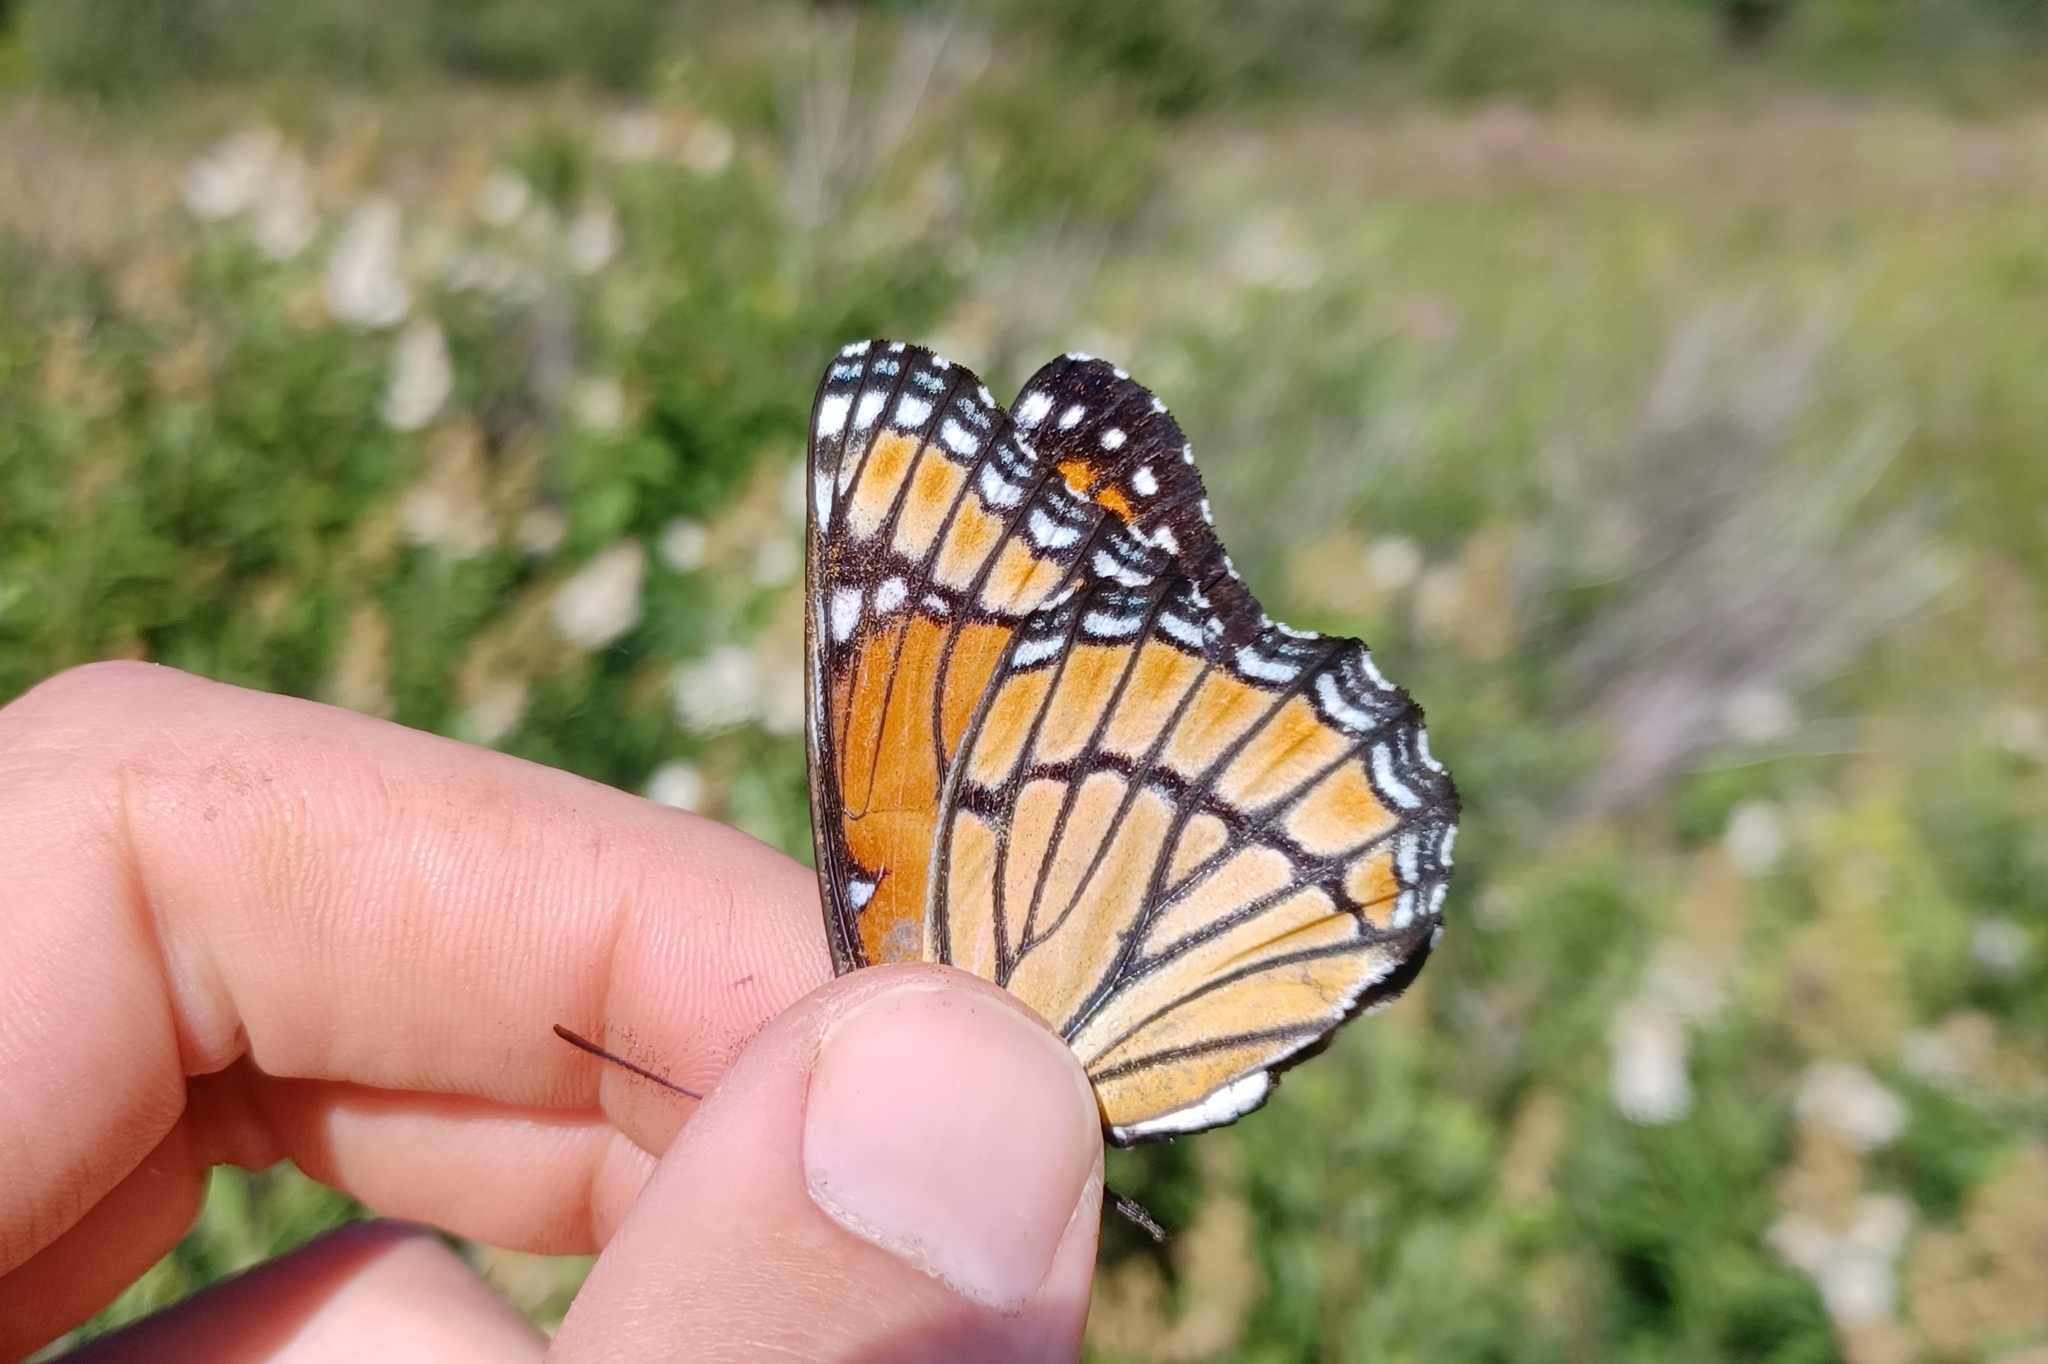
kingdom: Animalia
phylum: Arthropoda
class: Insecta
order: Lepidoptera
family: Nymphalidae
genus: Limenitis
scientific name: Limenitis archippus
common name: Viceroy
